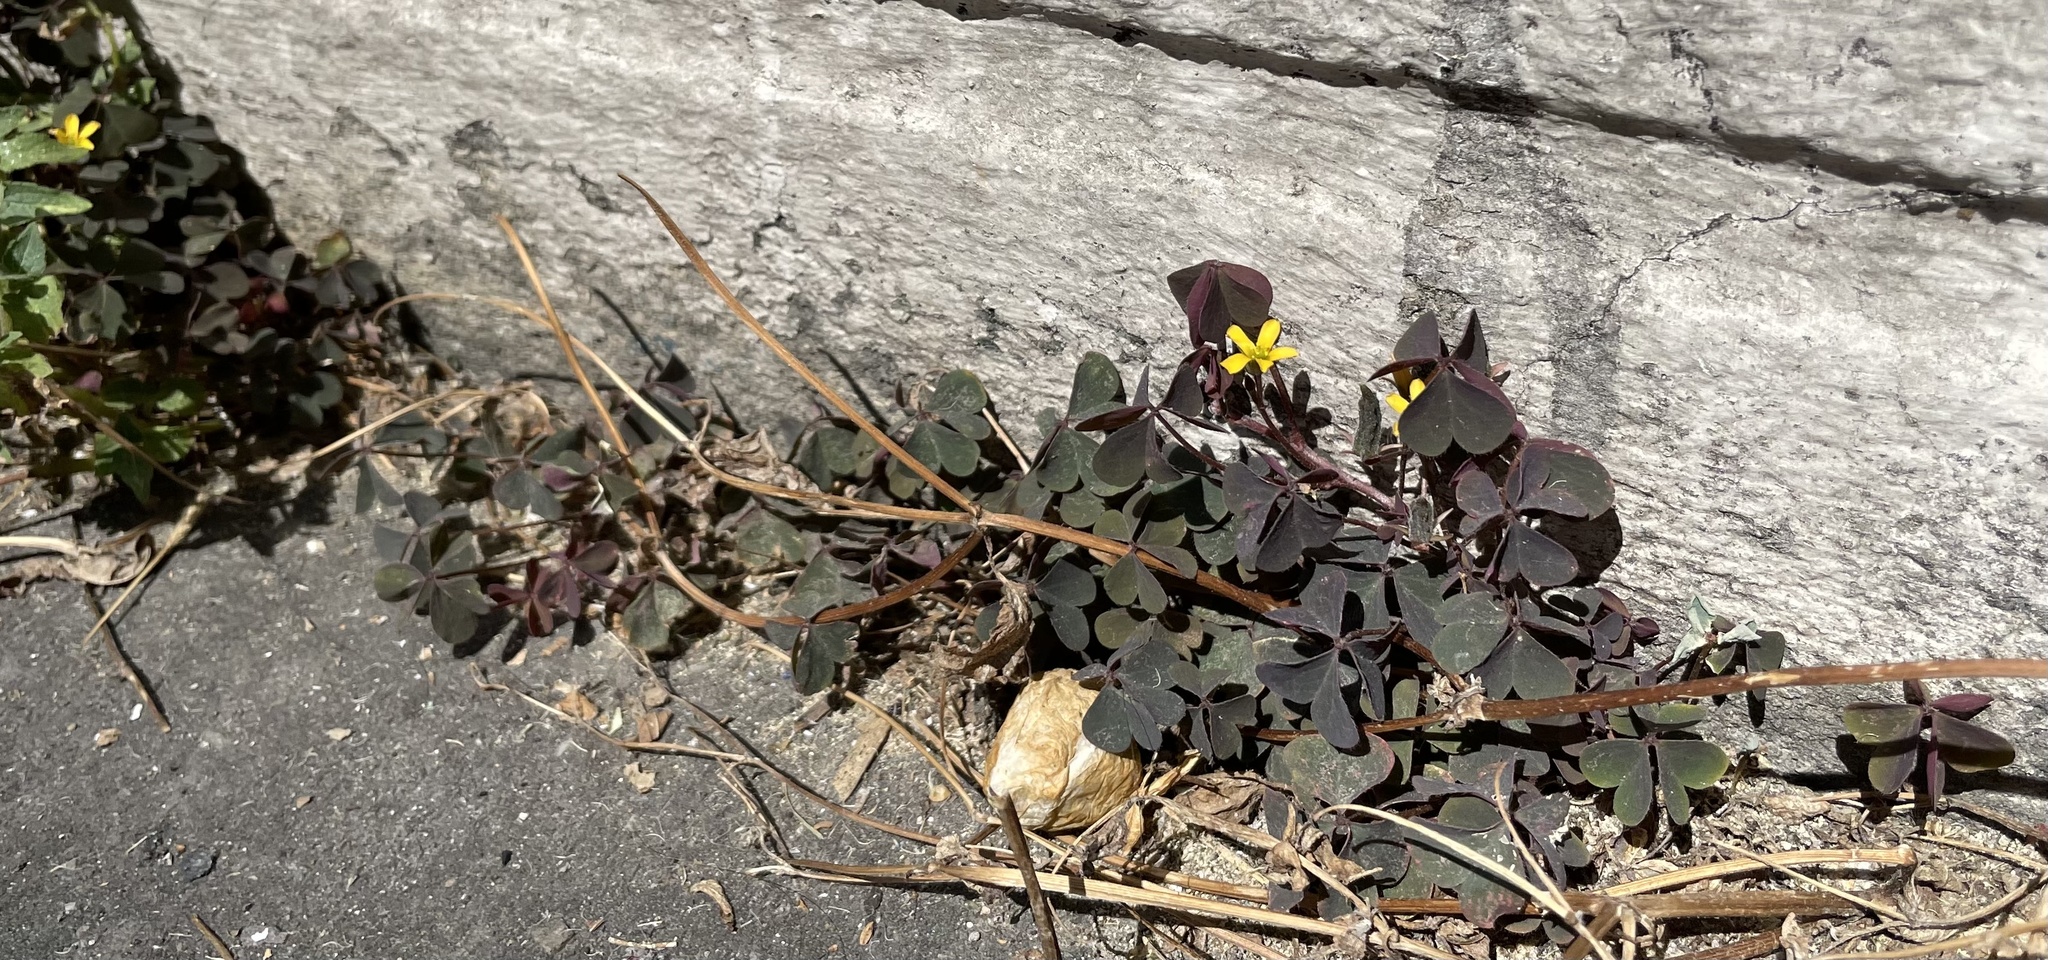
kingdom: Plantae
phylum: Tracheophyta
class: Magnoliopsida
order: Oxalidales
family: Oxalidaceae
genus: Oxalis
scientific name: Oxalis corniculata
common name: Procumbent yellow-sorrel
